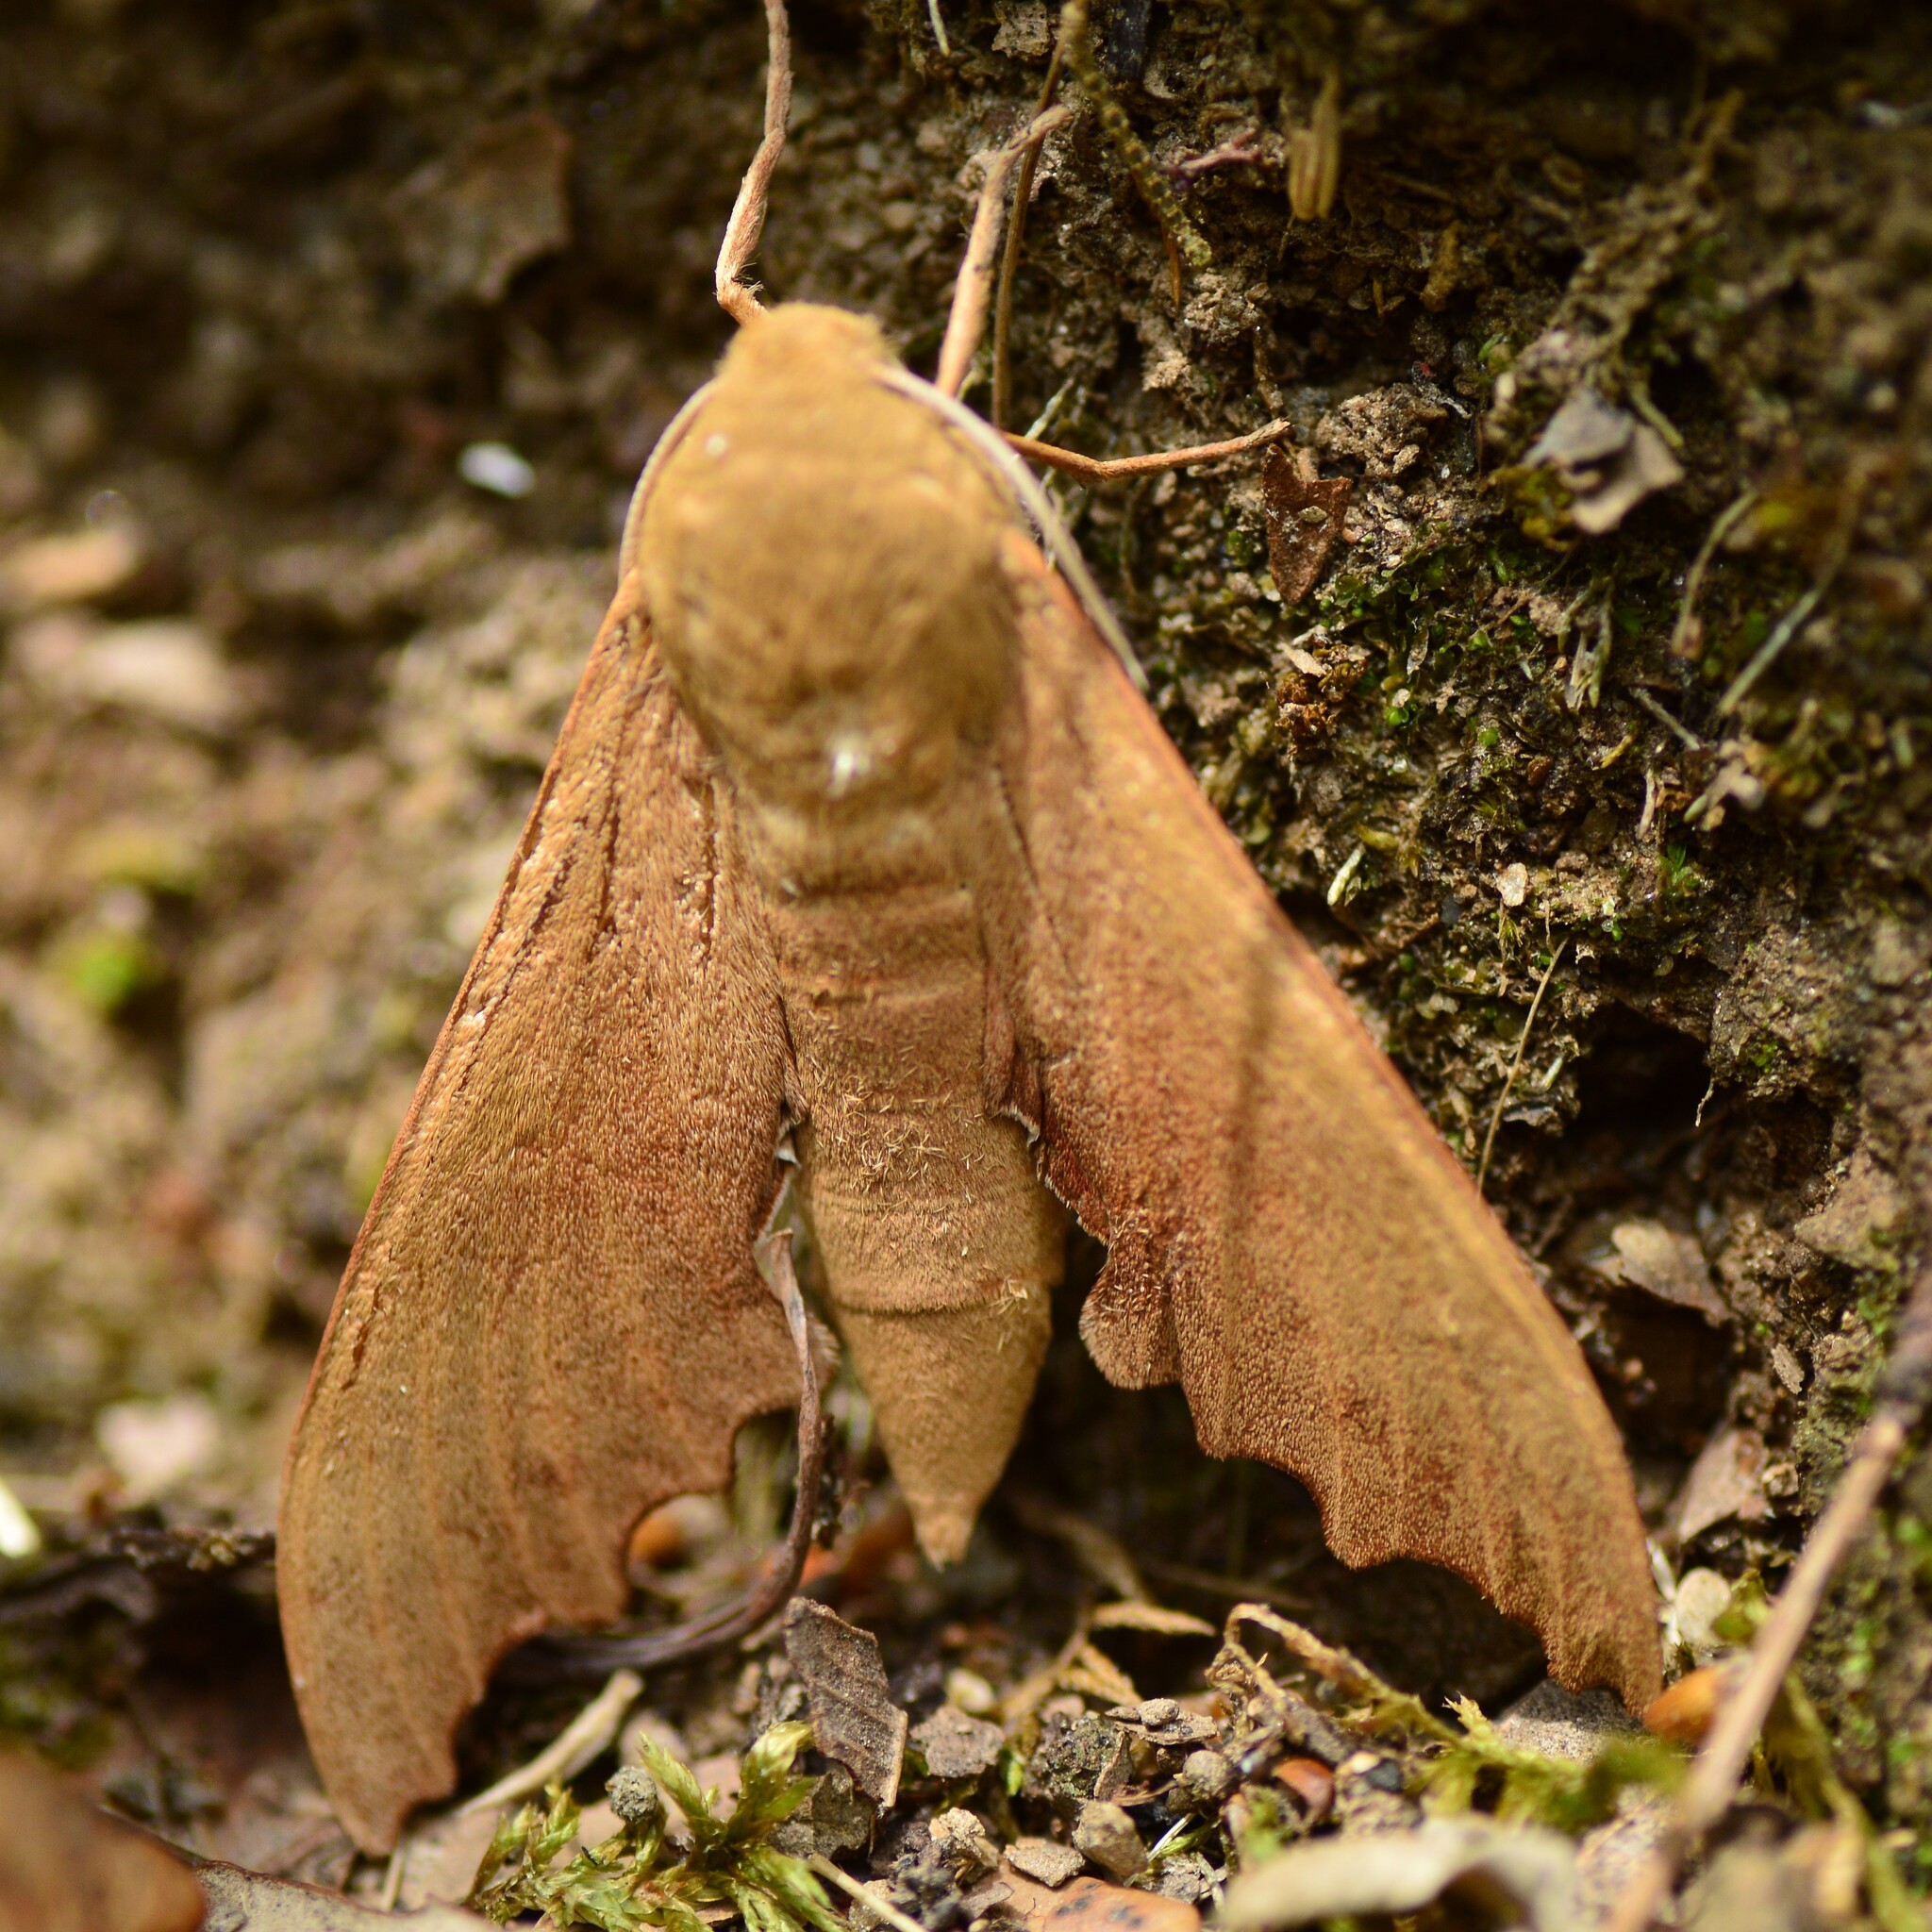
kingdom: Animalia
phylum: Arthropoda
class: Insecta
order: Lepidoptera
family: Sphingidae
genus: Cypa
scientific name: Cypa pallens
